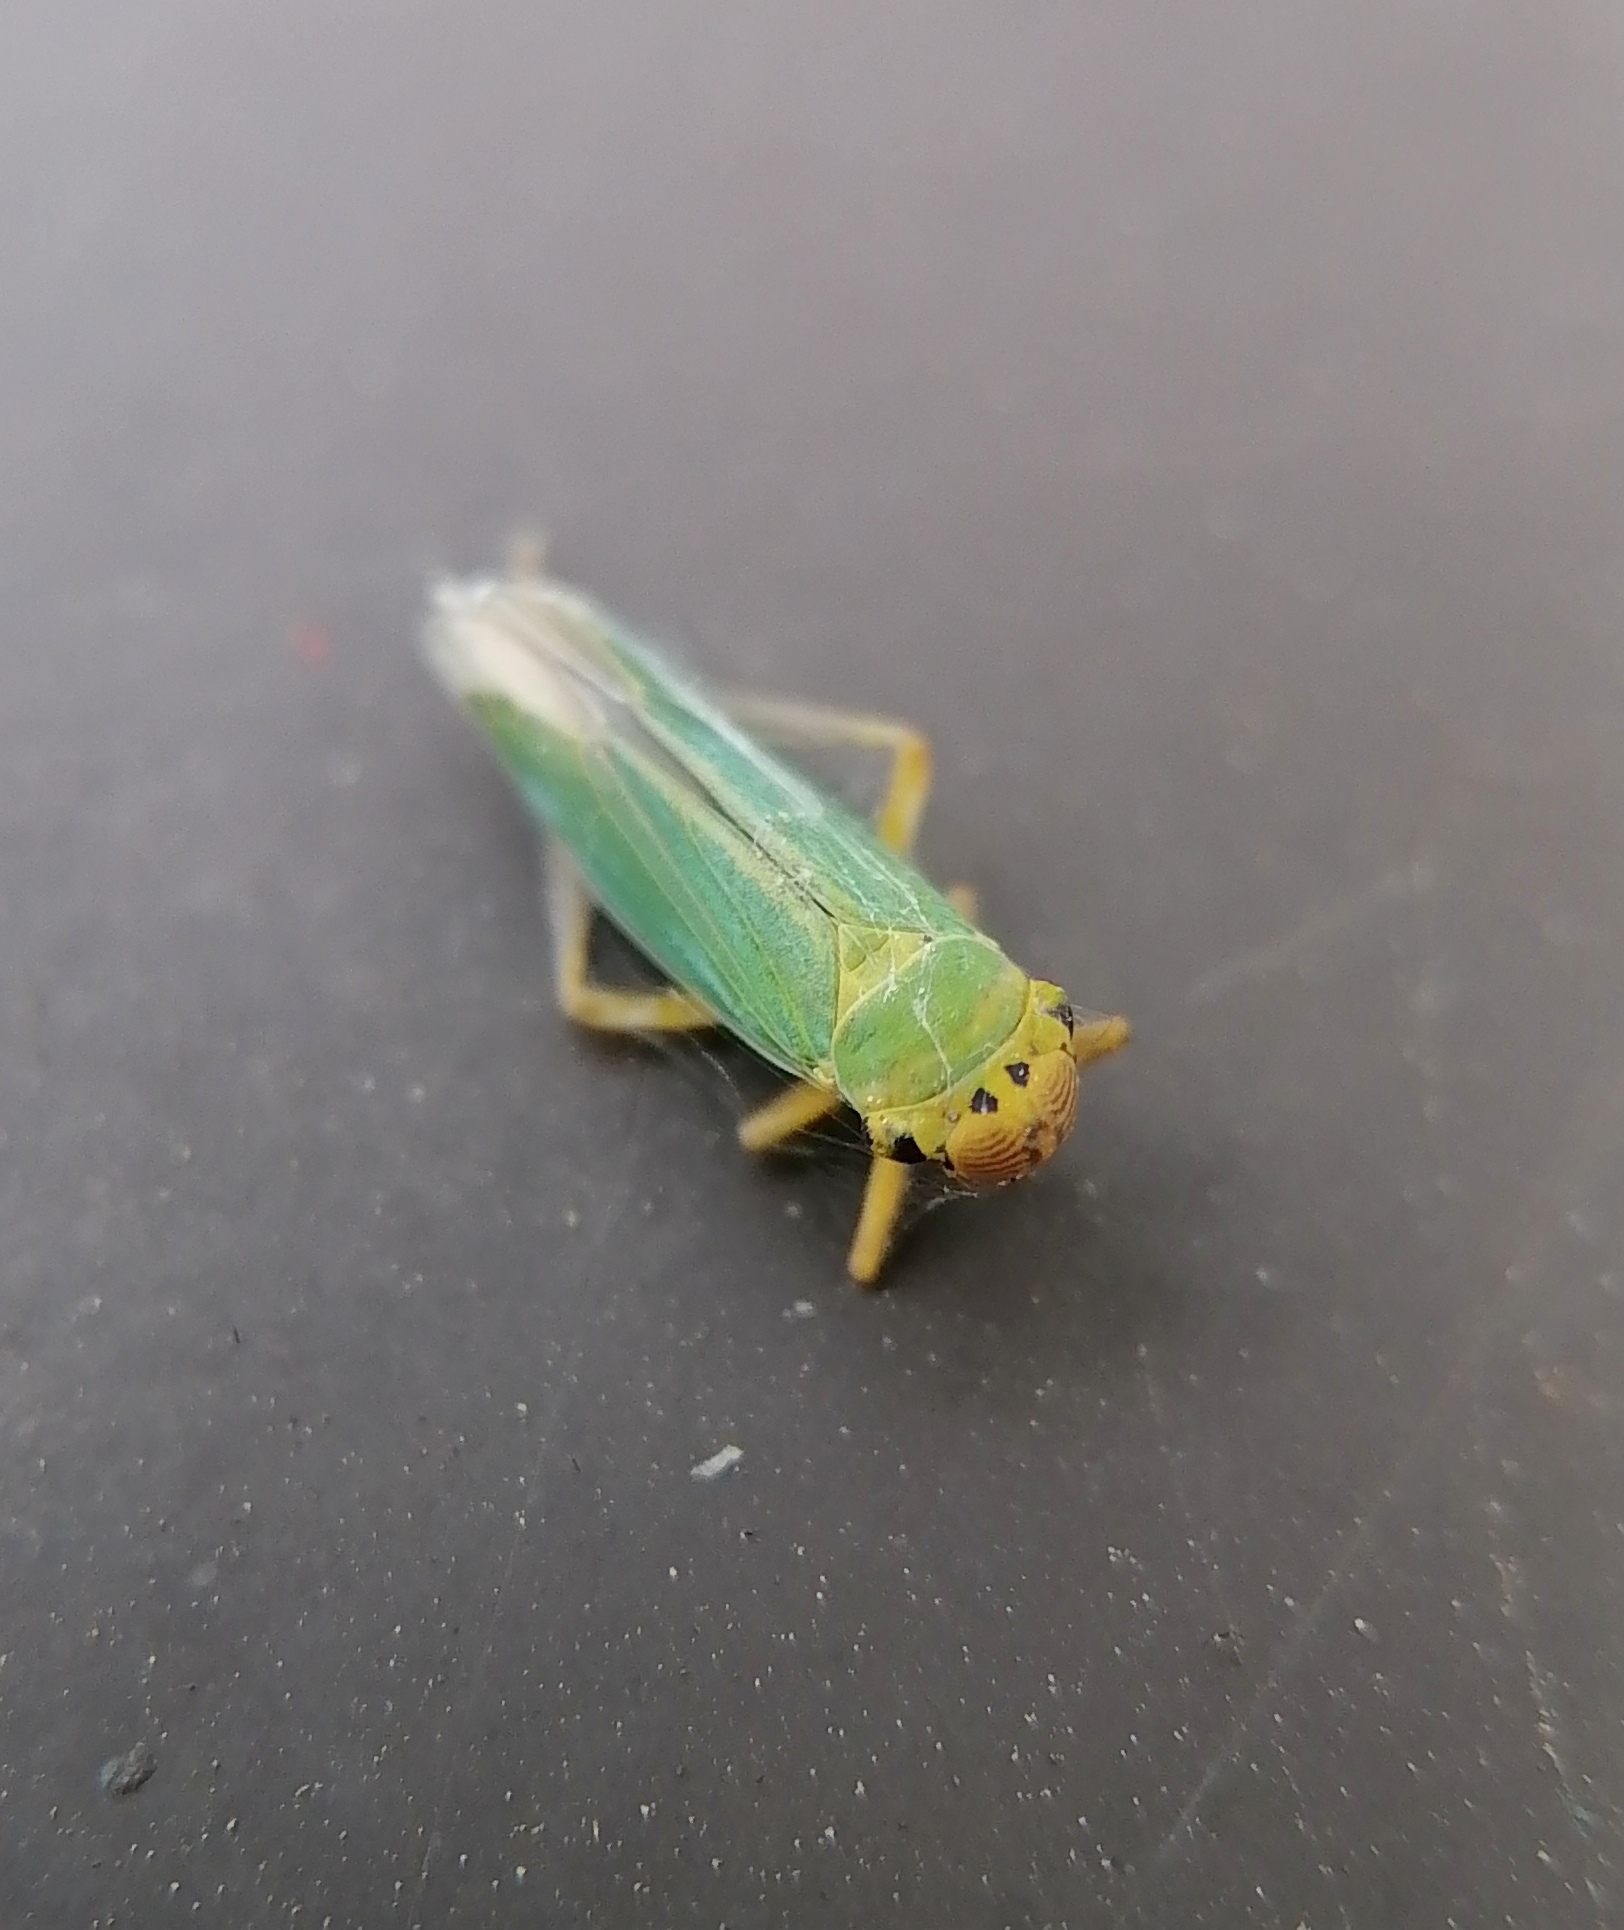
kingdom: Animalia
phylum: Arthropoda
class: Insecta
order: Hemiptera
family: Cicadellidae
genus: Cicadella
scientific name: Cicadella viridis
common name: Leafhopper
